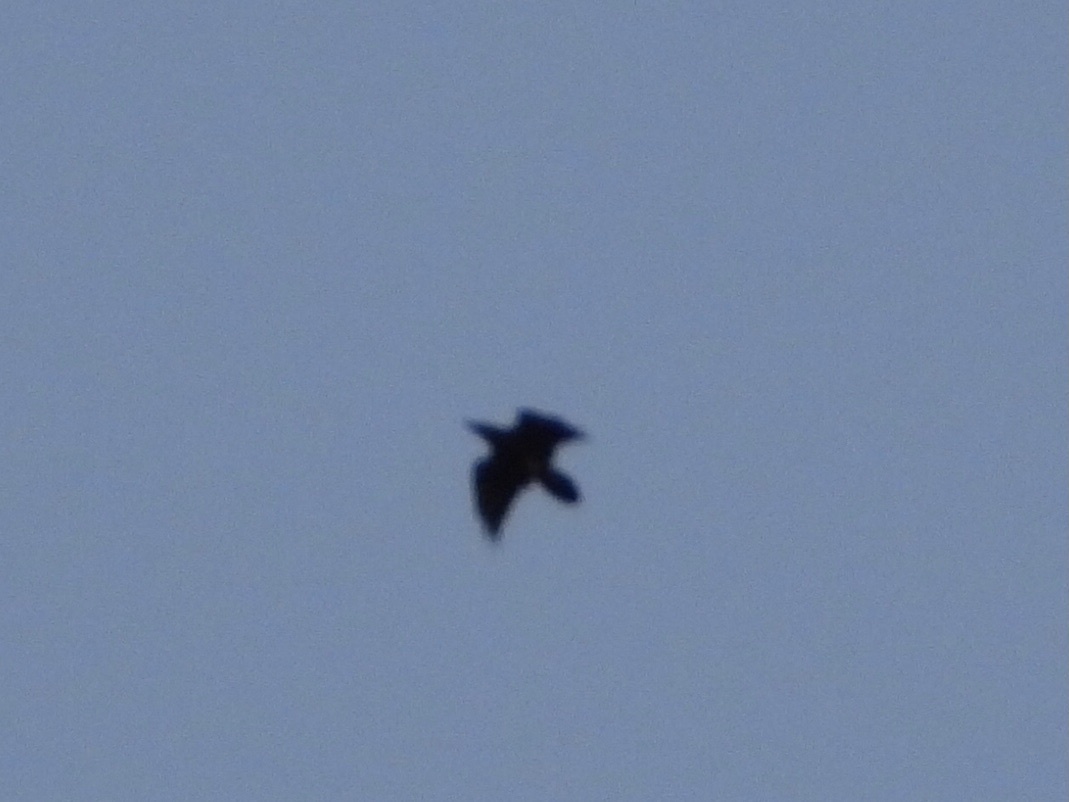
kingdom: Animalia
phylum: Chordata
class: Aves
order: Passeriformes
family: Corvidae
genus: Corvus
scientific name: Corvus corax
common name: Common raven
